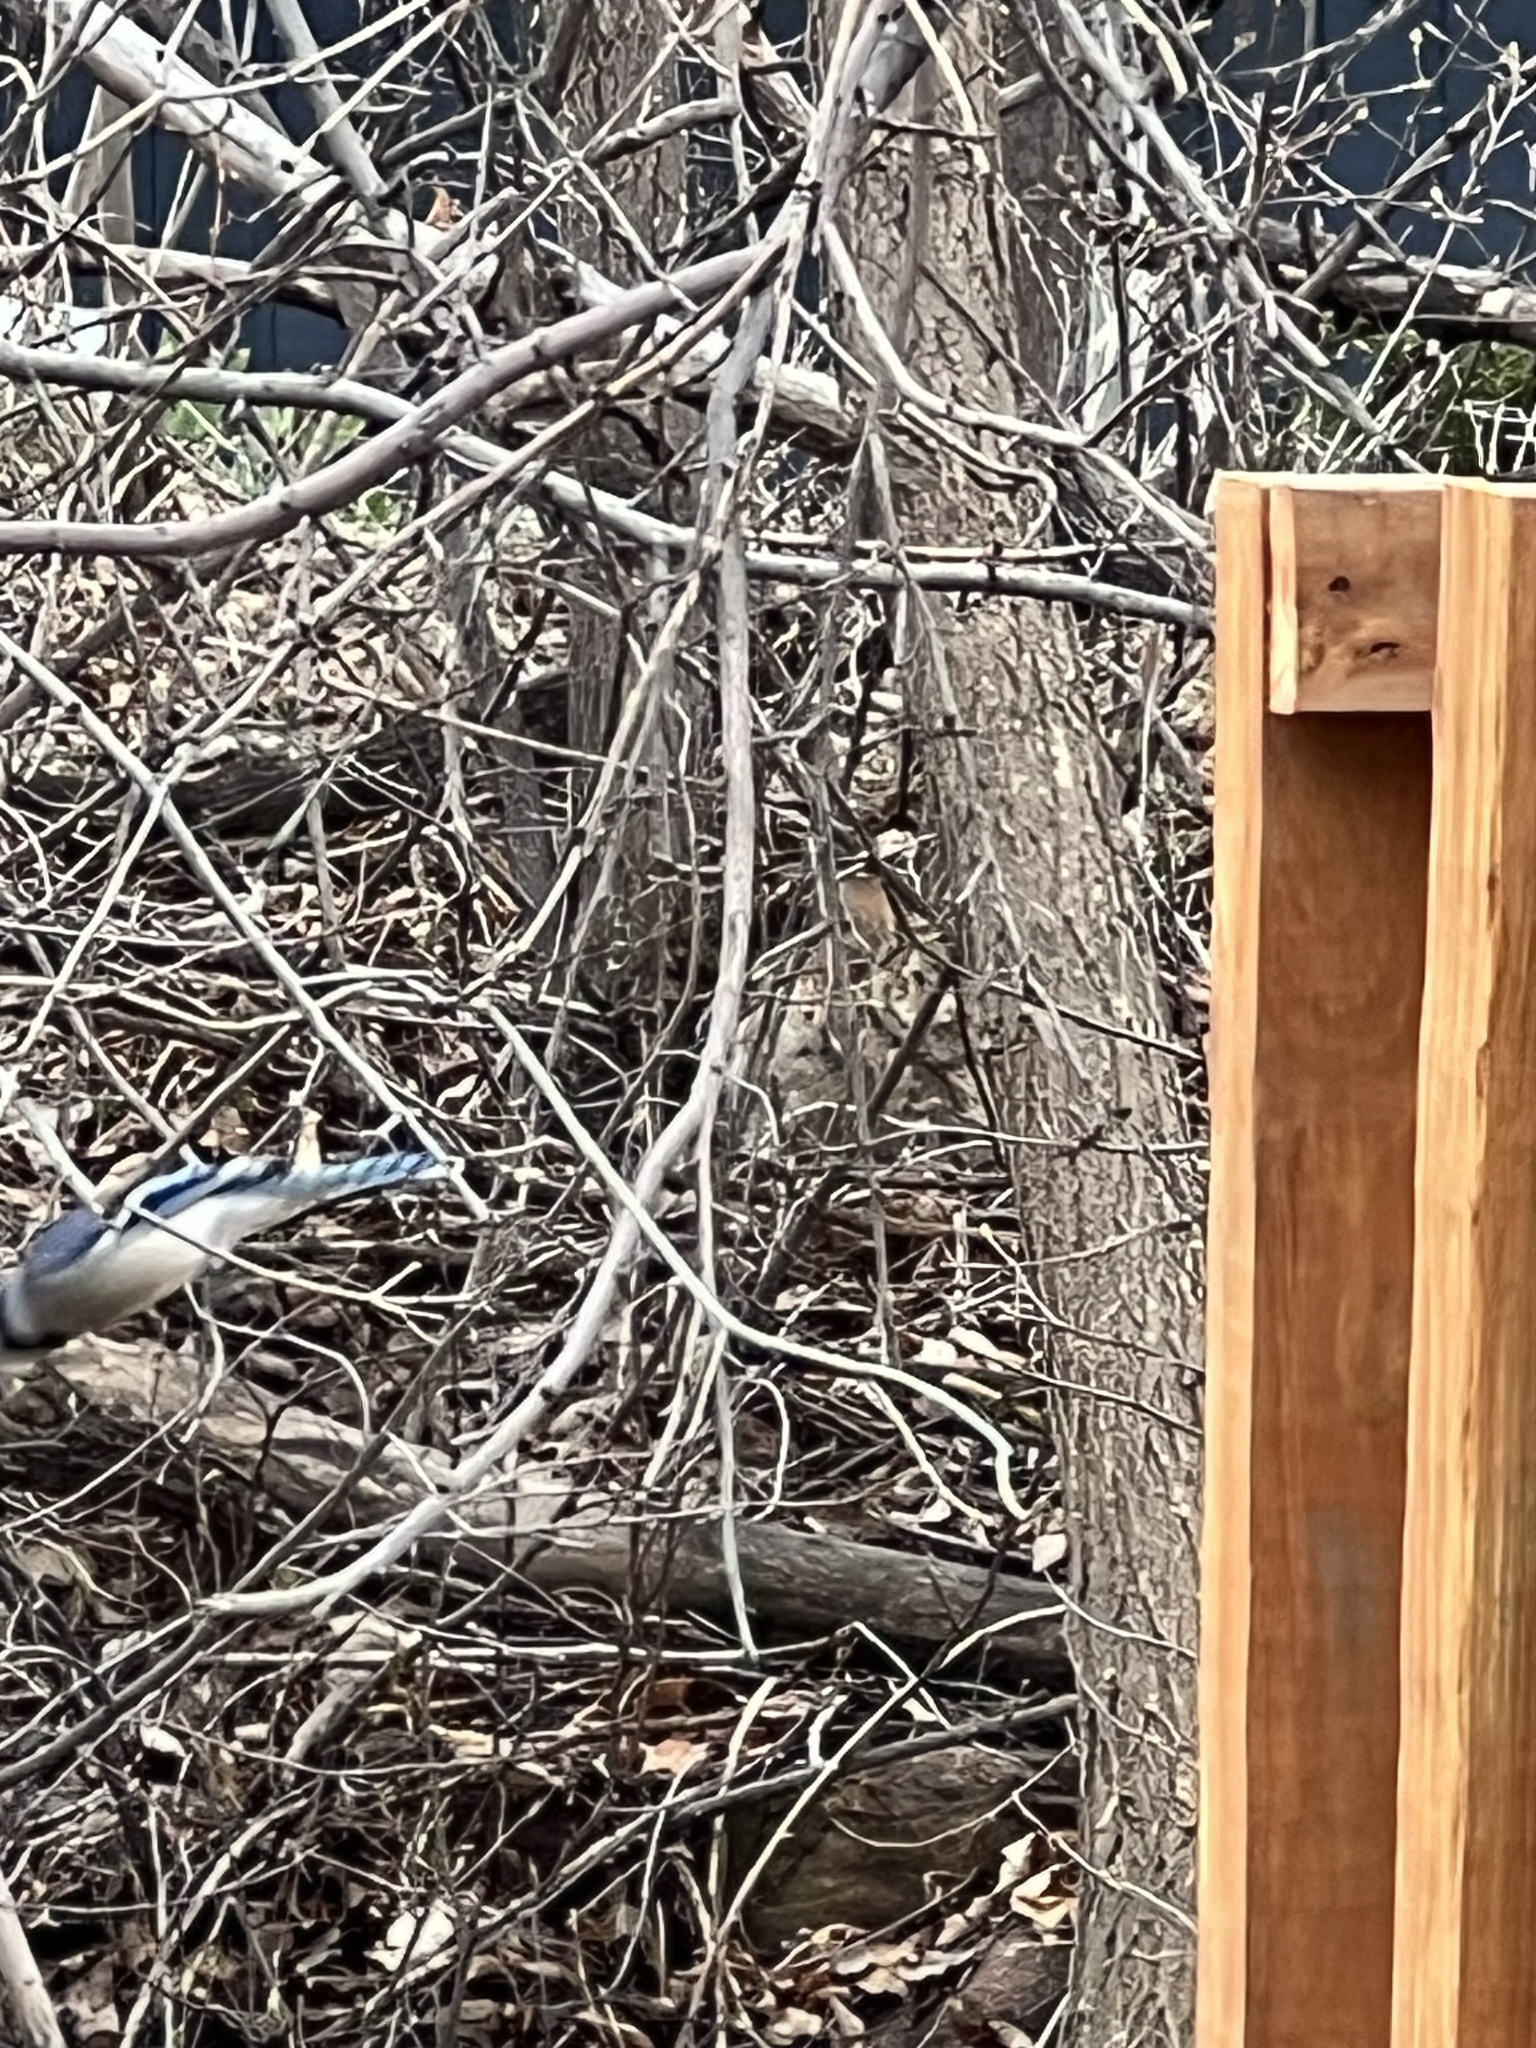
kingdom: Animalia
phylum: Chordata
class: Aves
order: Passeriformes
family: Corvidae
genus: Cyanocitta
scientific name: Cyanocitta cristata
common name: Blue jay
